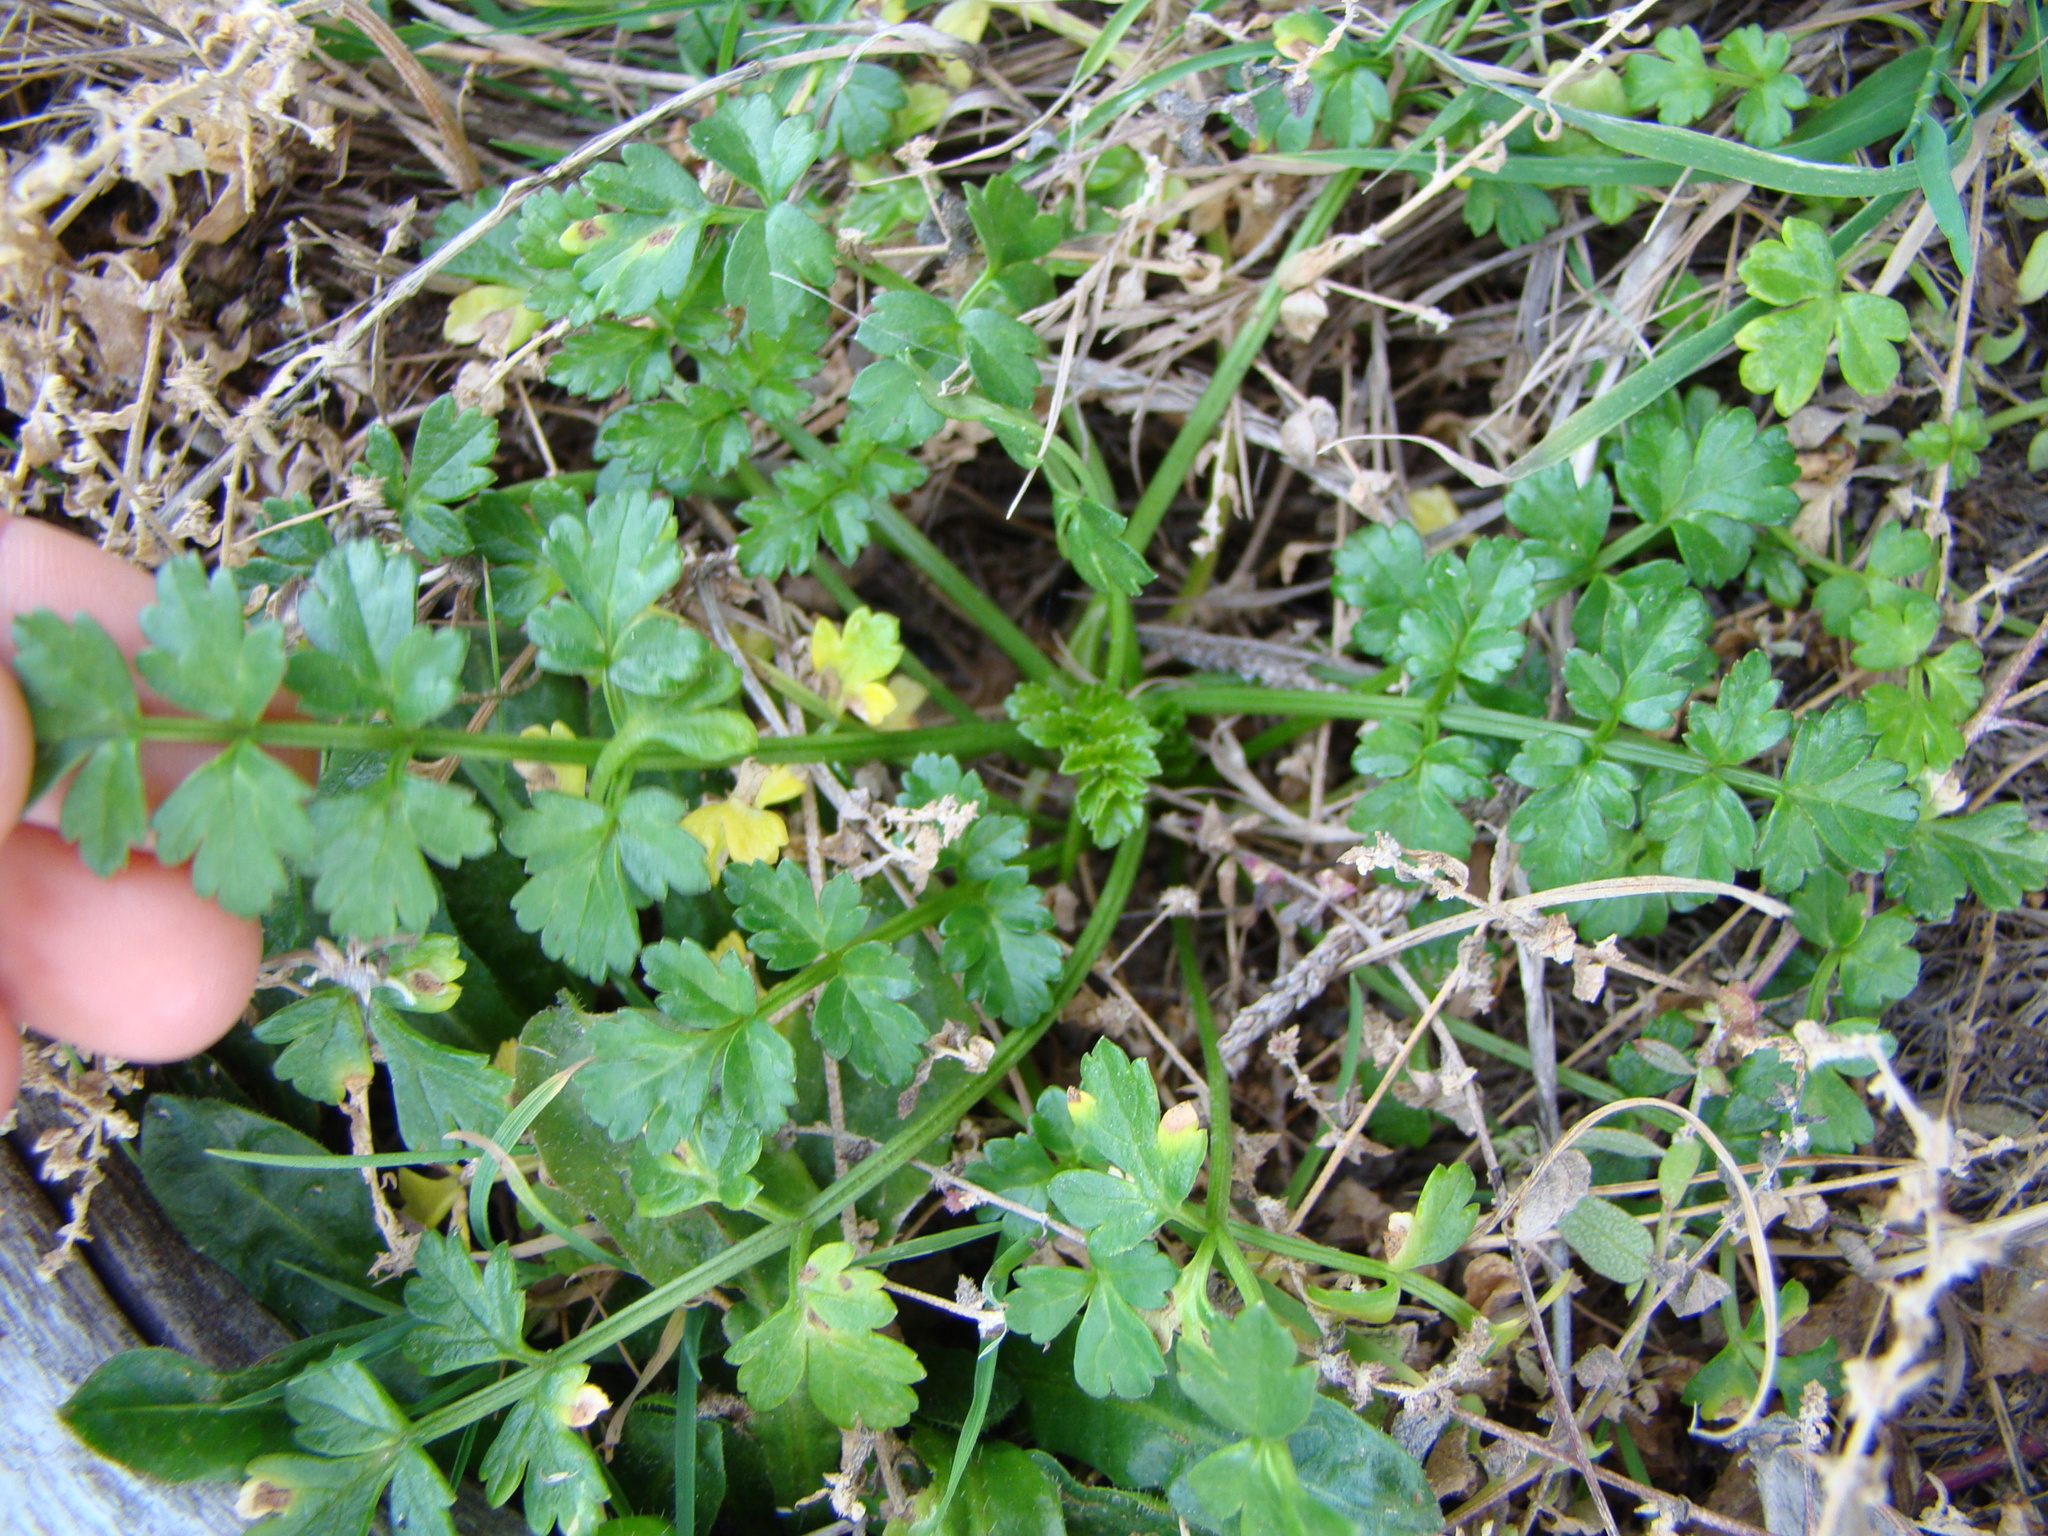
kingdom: Plantae
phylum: Tracheophyta
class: Magnoliopsida
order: Apiales
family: Apiaceae
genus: Apium
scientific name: Apium prostratum
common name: Prostrate marshwort
